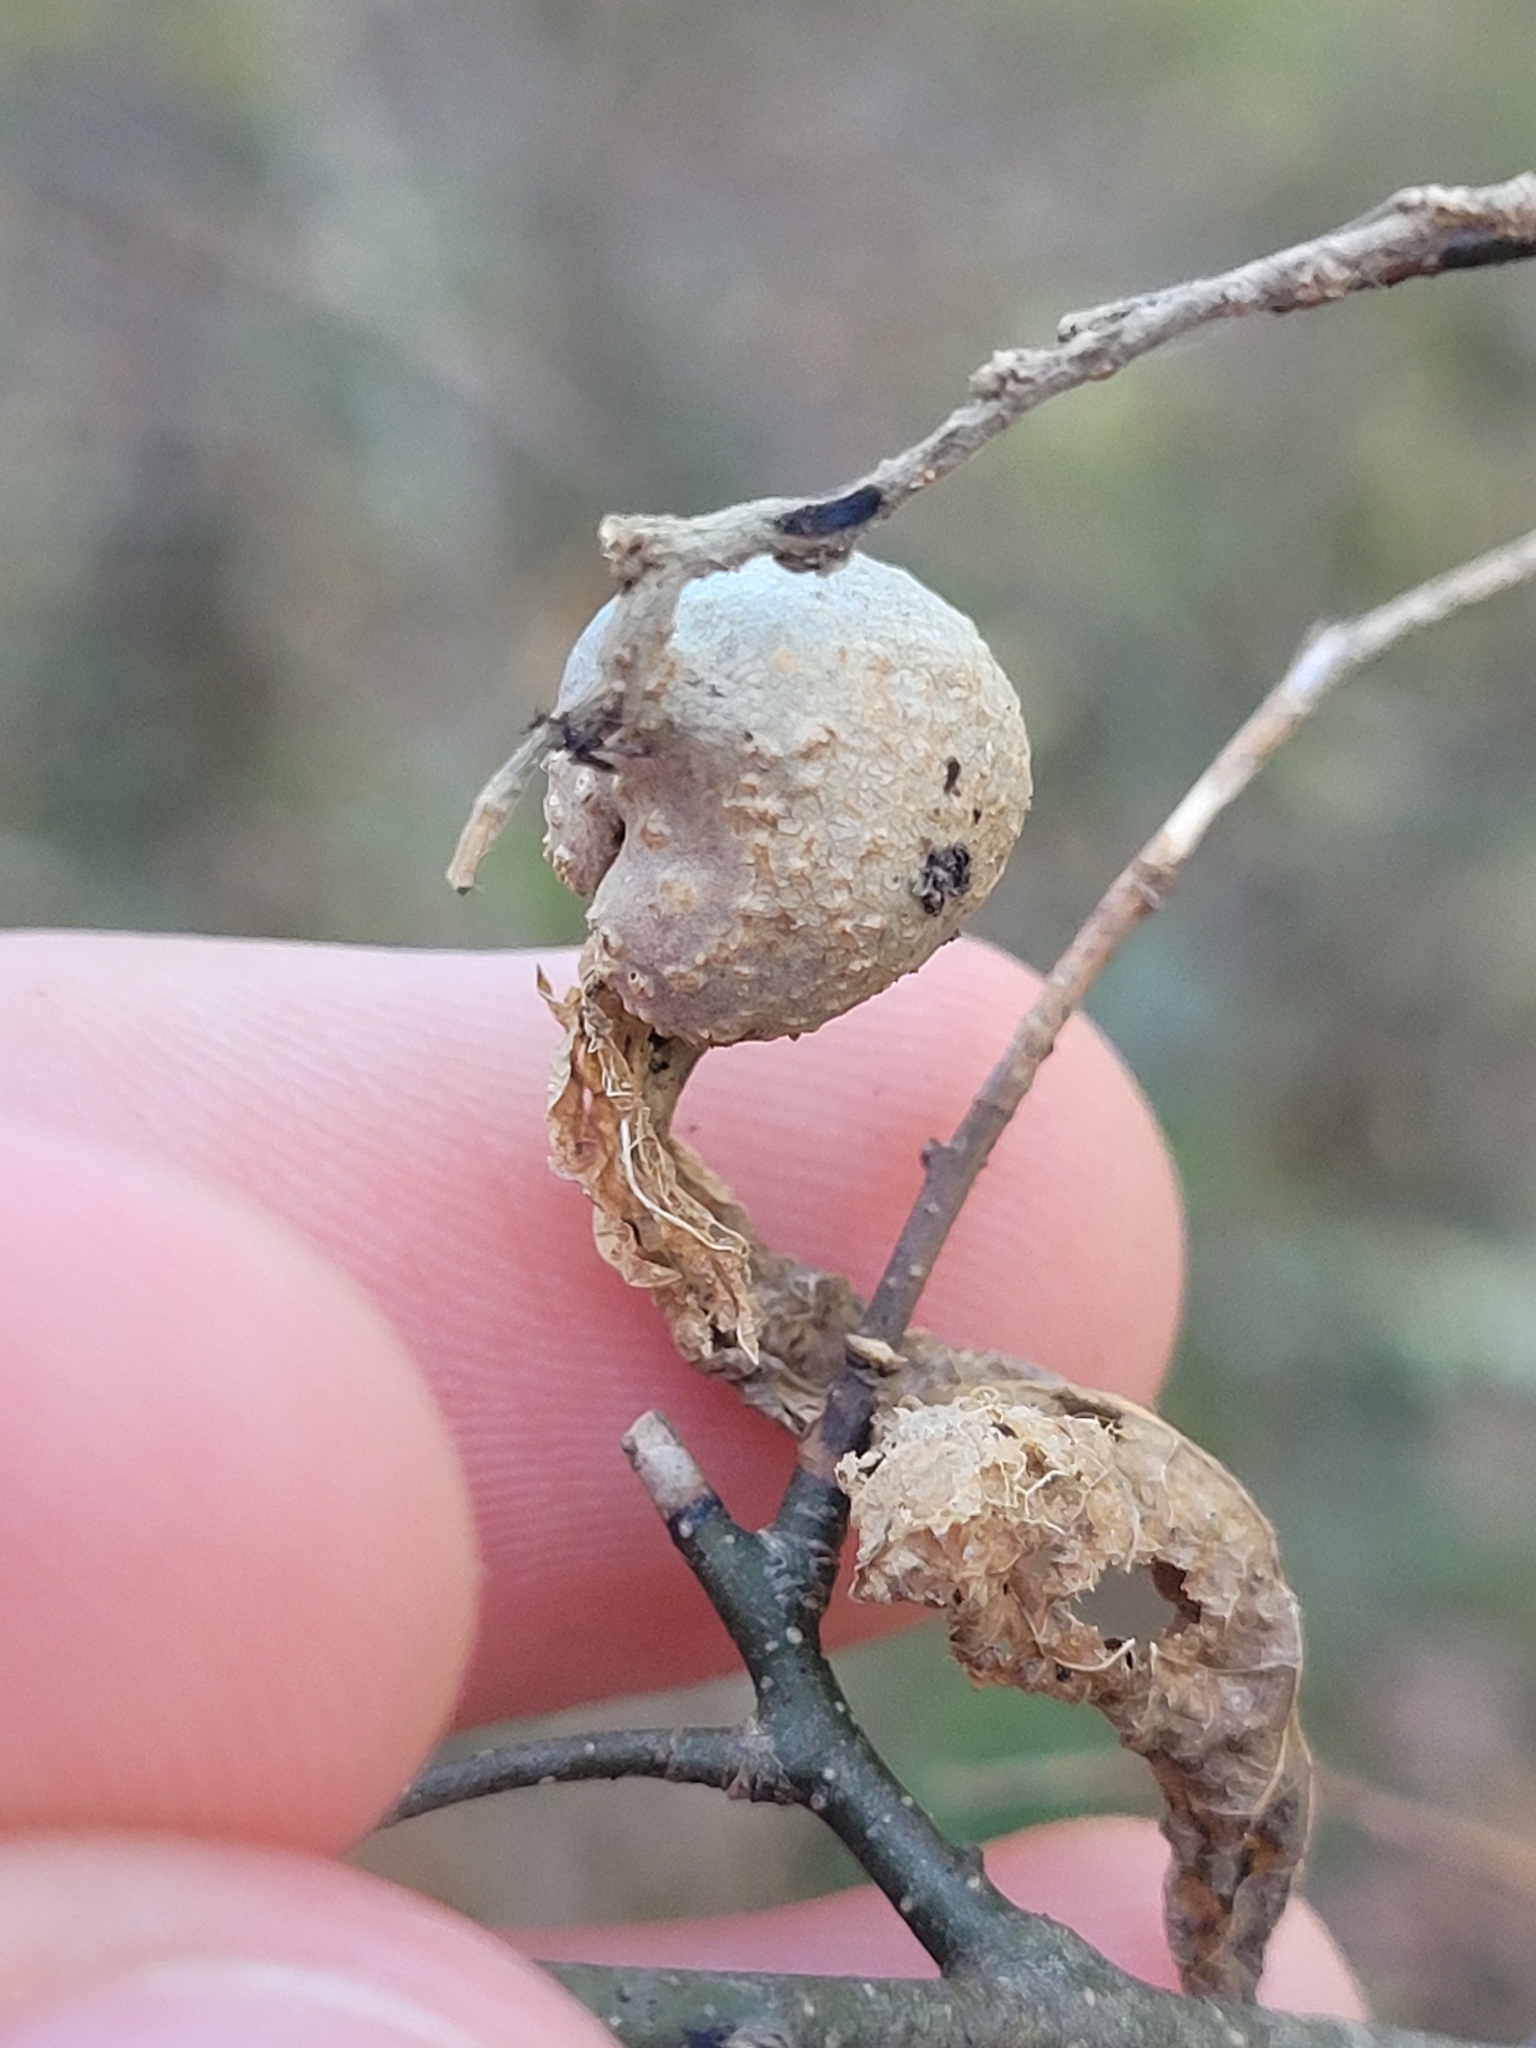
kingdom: Animalia
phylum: Arthropoda
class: Insecta
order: Hemiptera
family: Aphalaridae
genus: Pachypsylla
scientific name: Pachypsylla venusta
